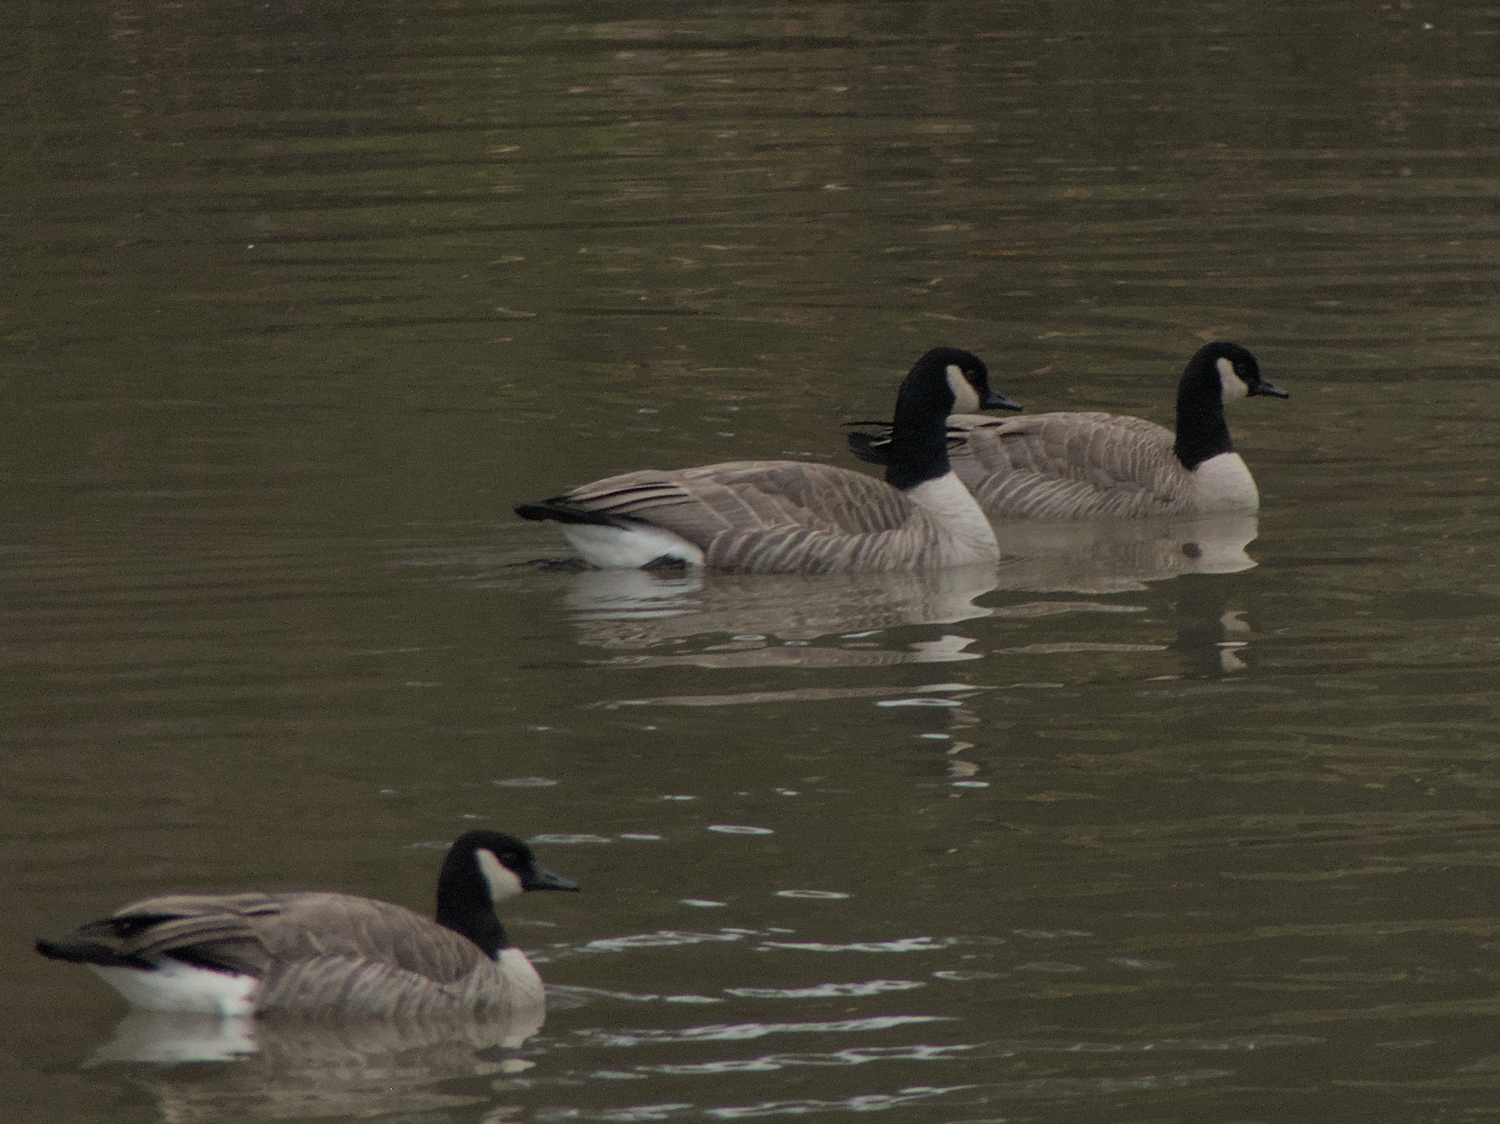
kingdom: Animalia
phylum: Chordata
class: Aves
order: Anseriformes
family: Anatidae
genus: Branta
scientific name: Branta canadensis
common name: Canada goose
